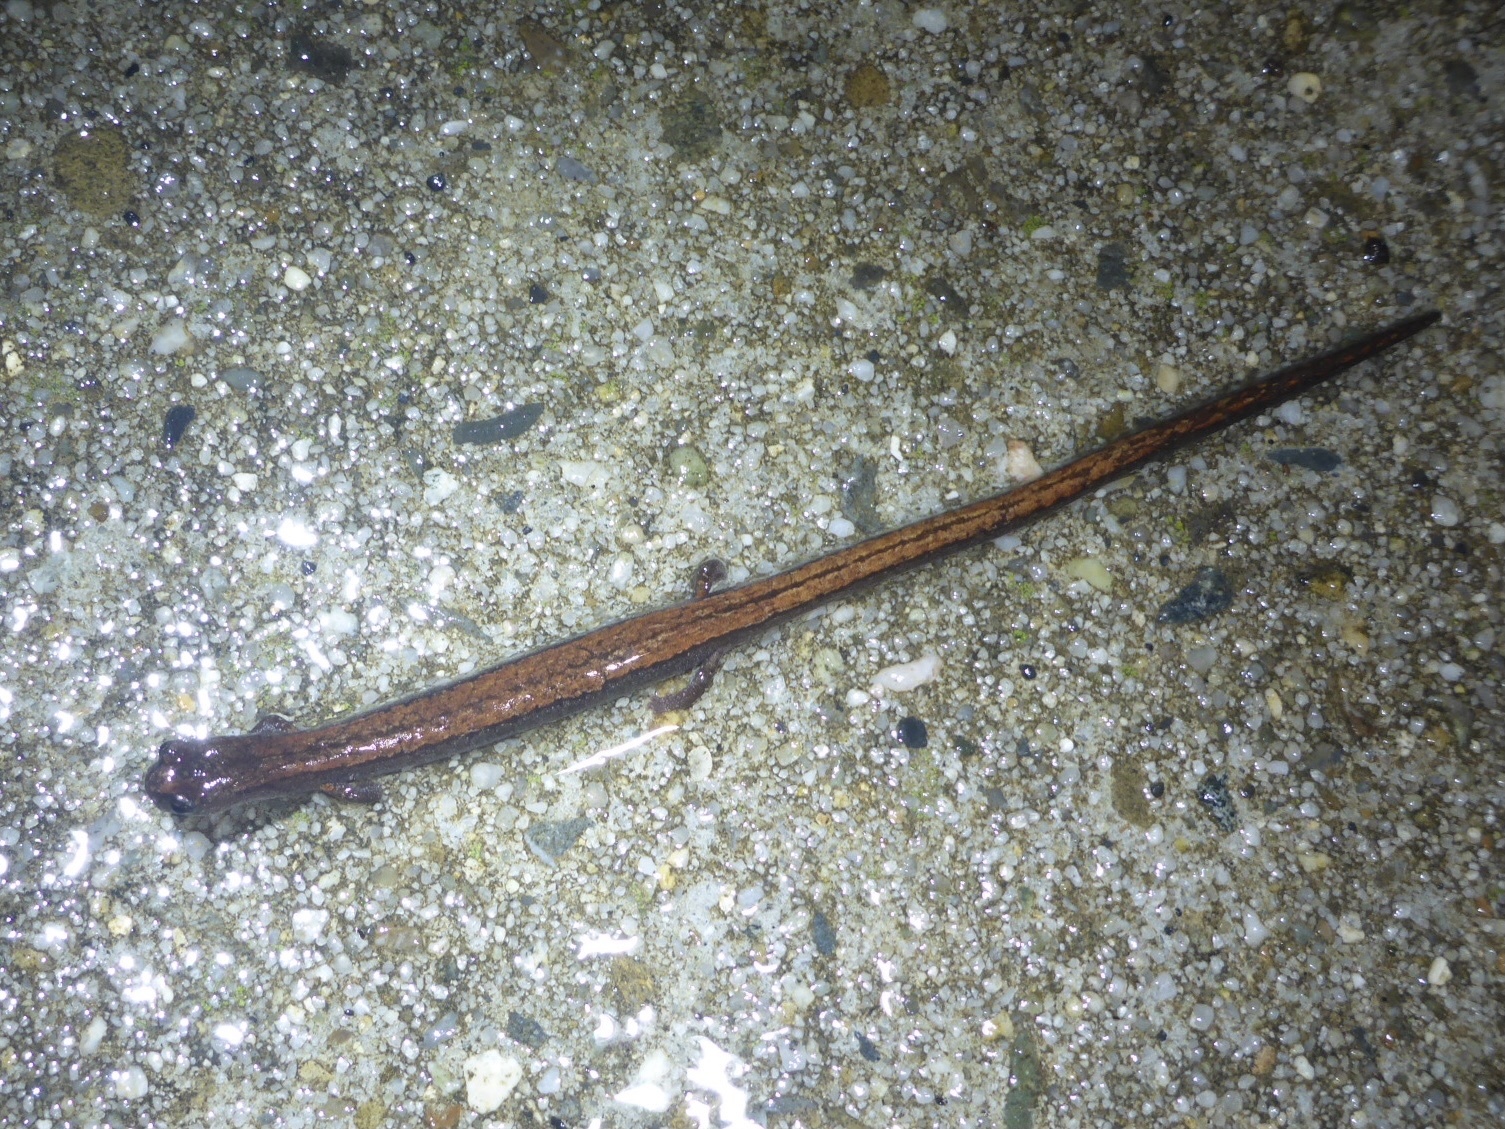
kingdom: Animalia
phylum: Chordata
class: Amphibia
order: Caudata
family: Plethodontidae
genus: Batrachoseps
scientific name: Batrachoseps attenuatus
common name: California slender salamander
